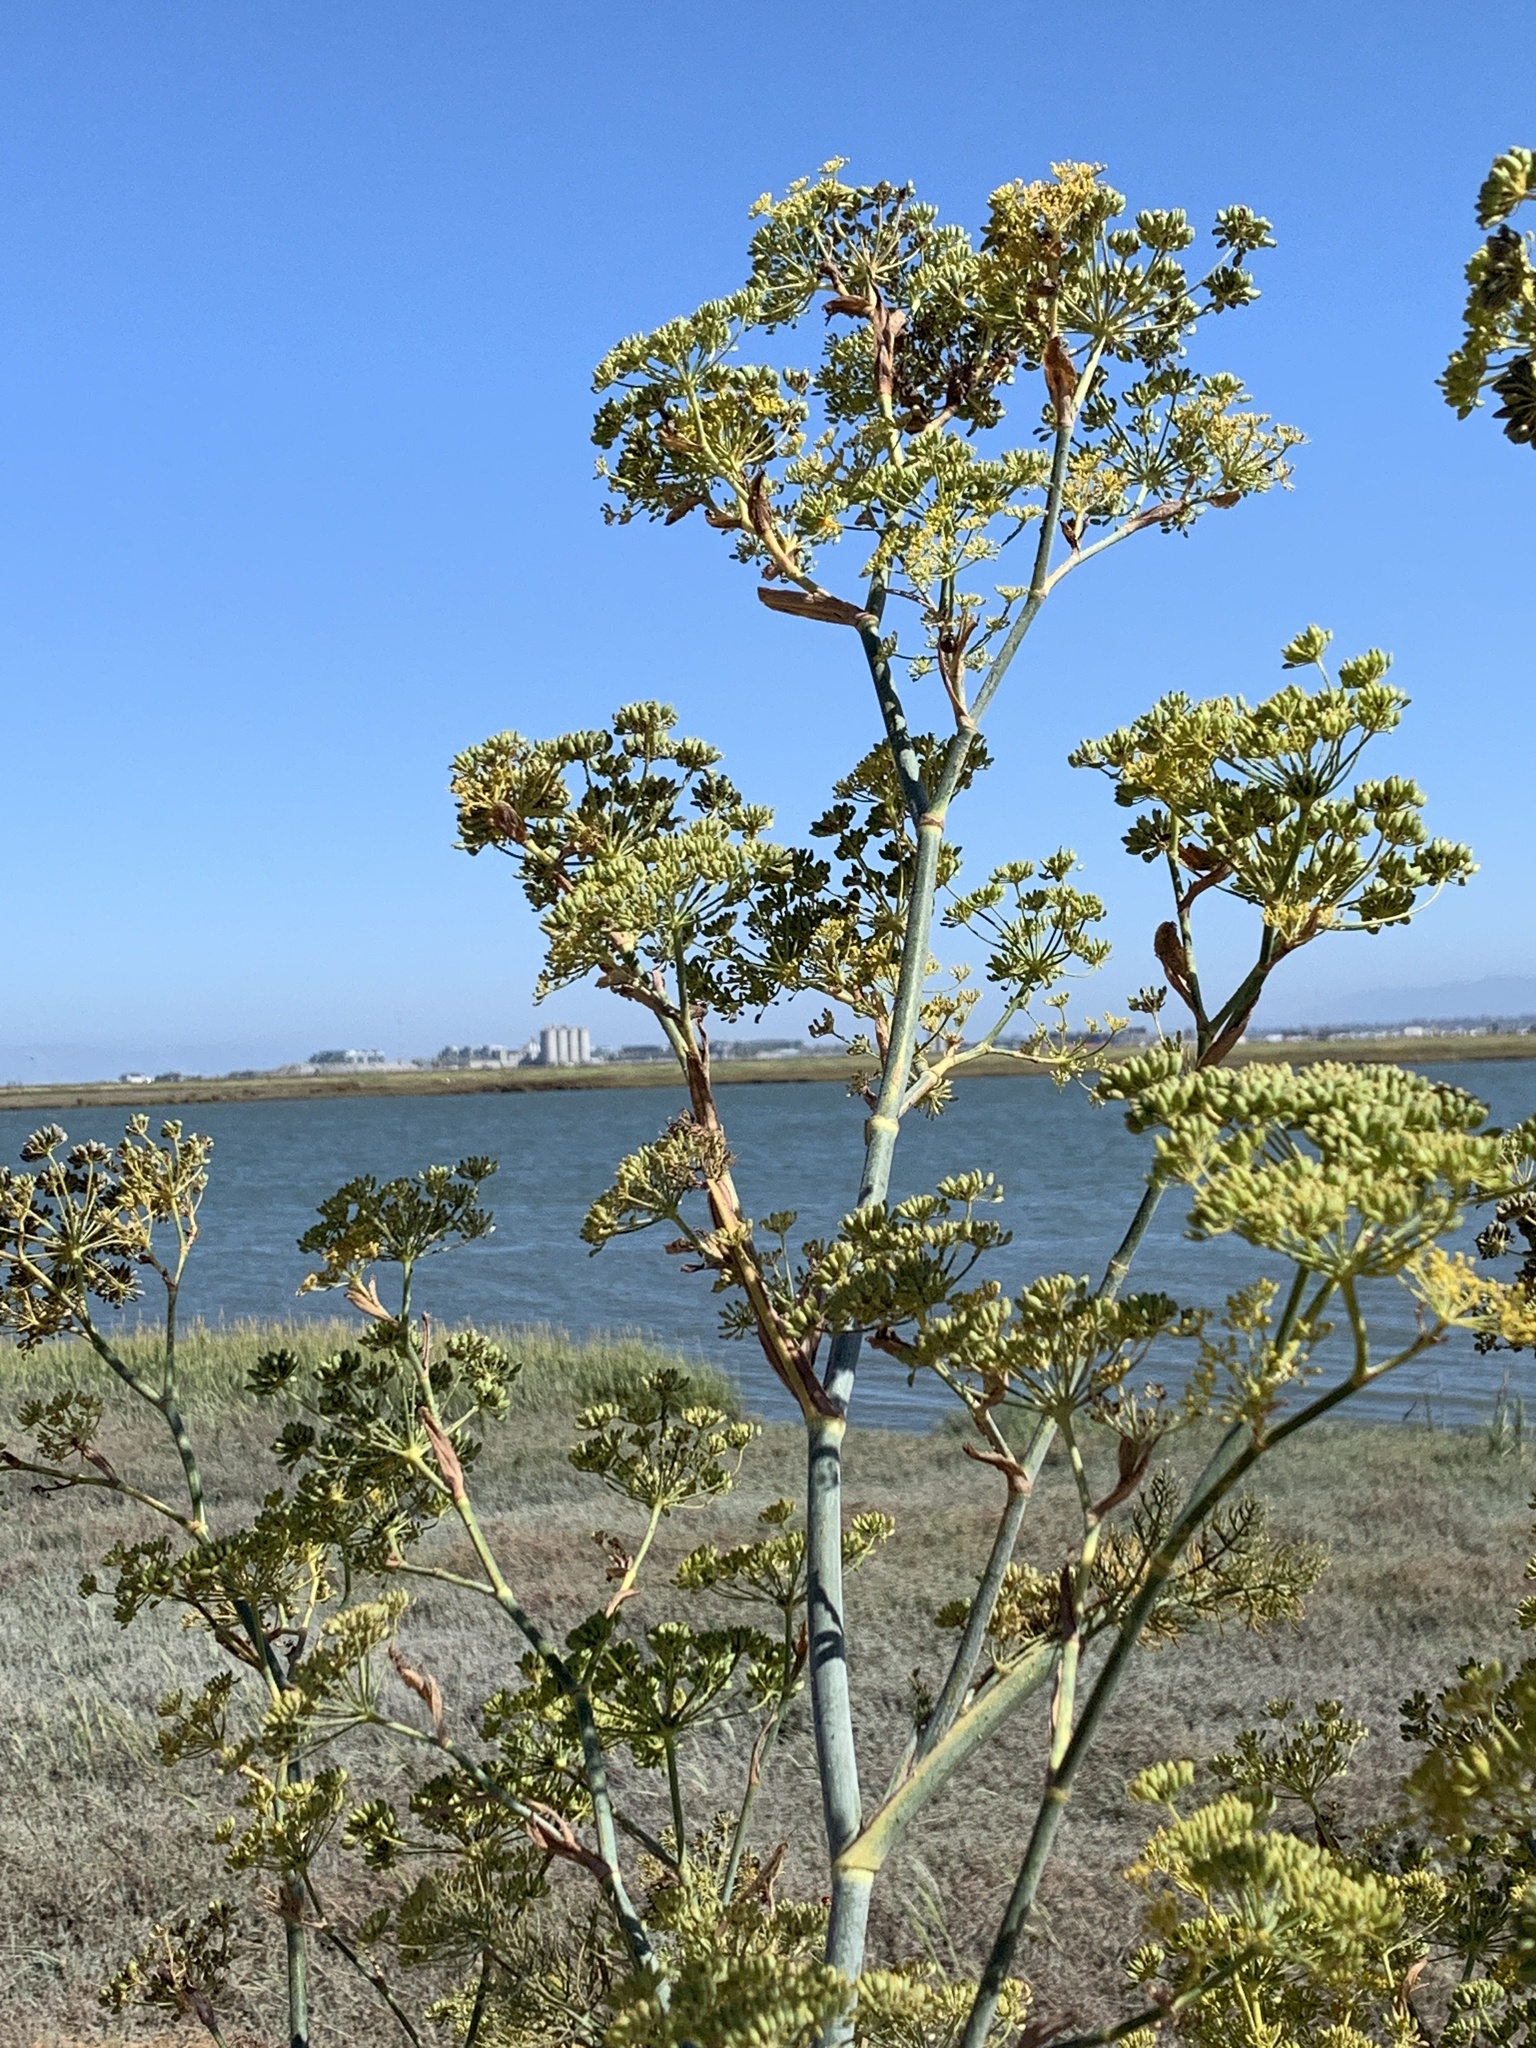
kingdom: Plantae
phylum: Tracheophyta
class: Magnoliopsida
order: Apiales
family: Apiaceae
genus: Foeniculum
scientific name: Foeniculum vulgare
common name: Fennel
